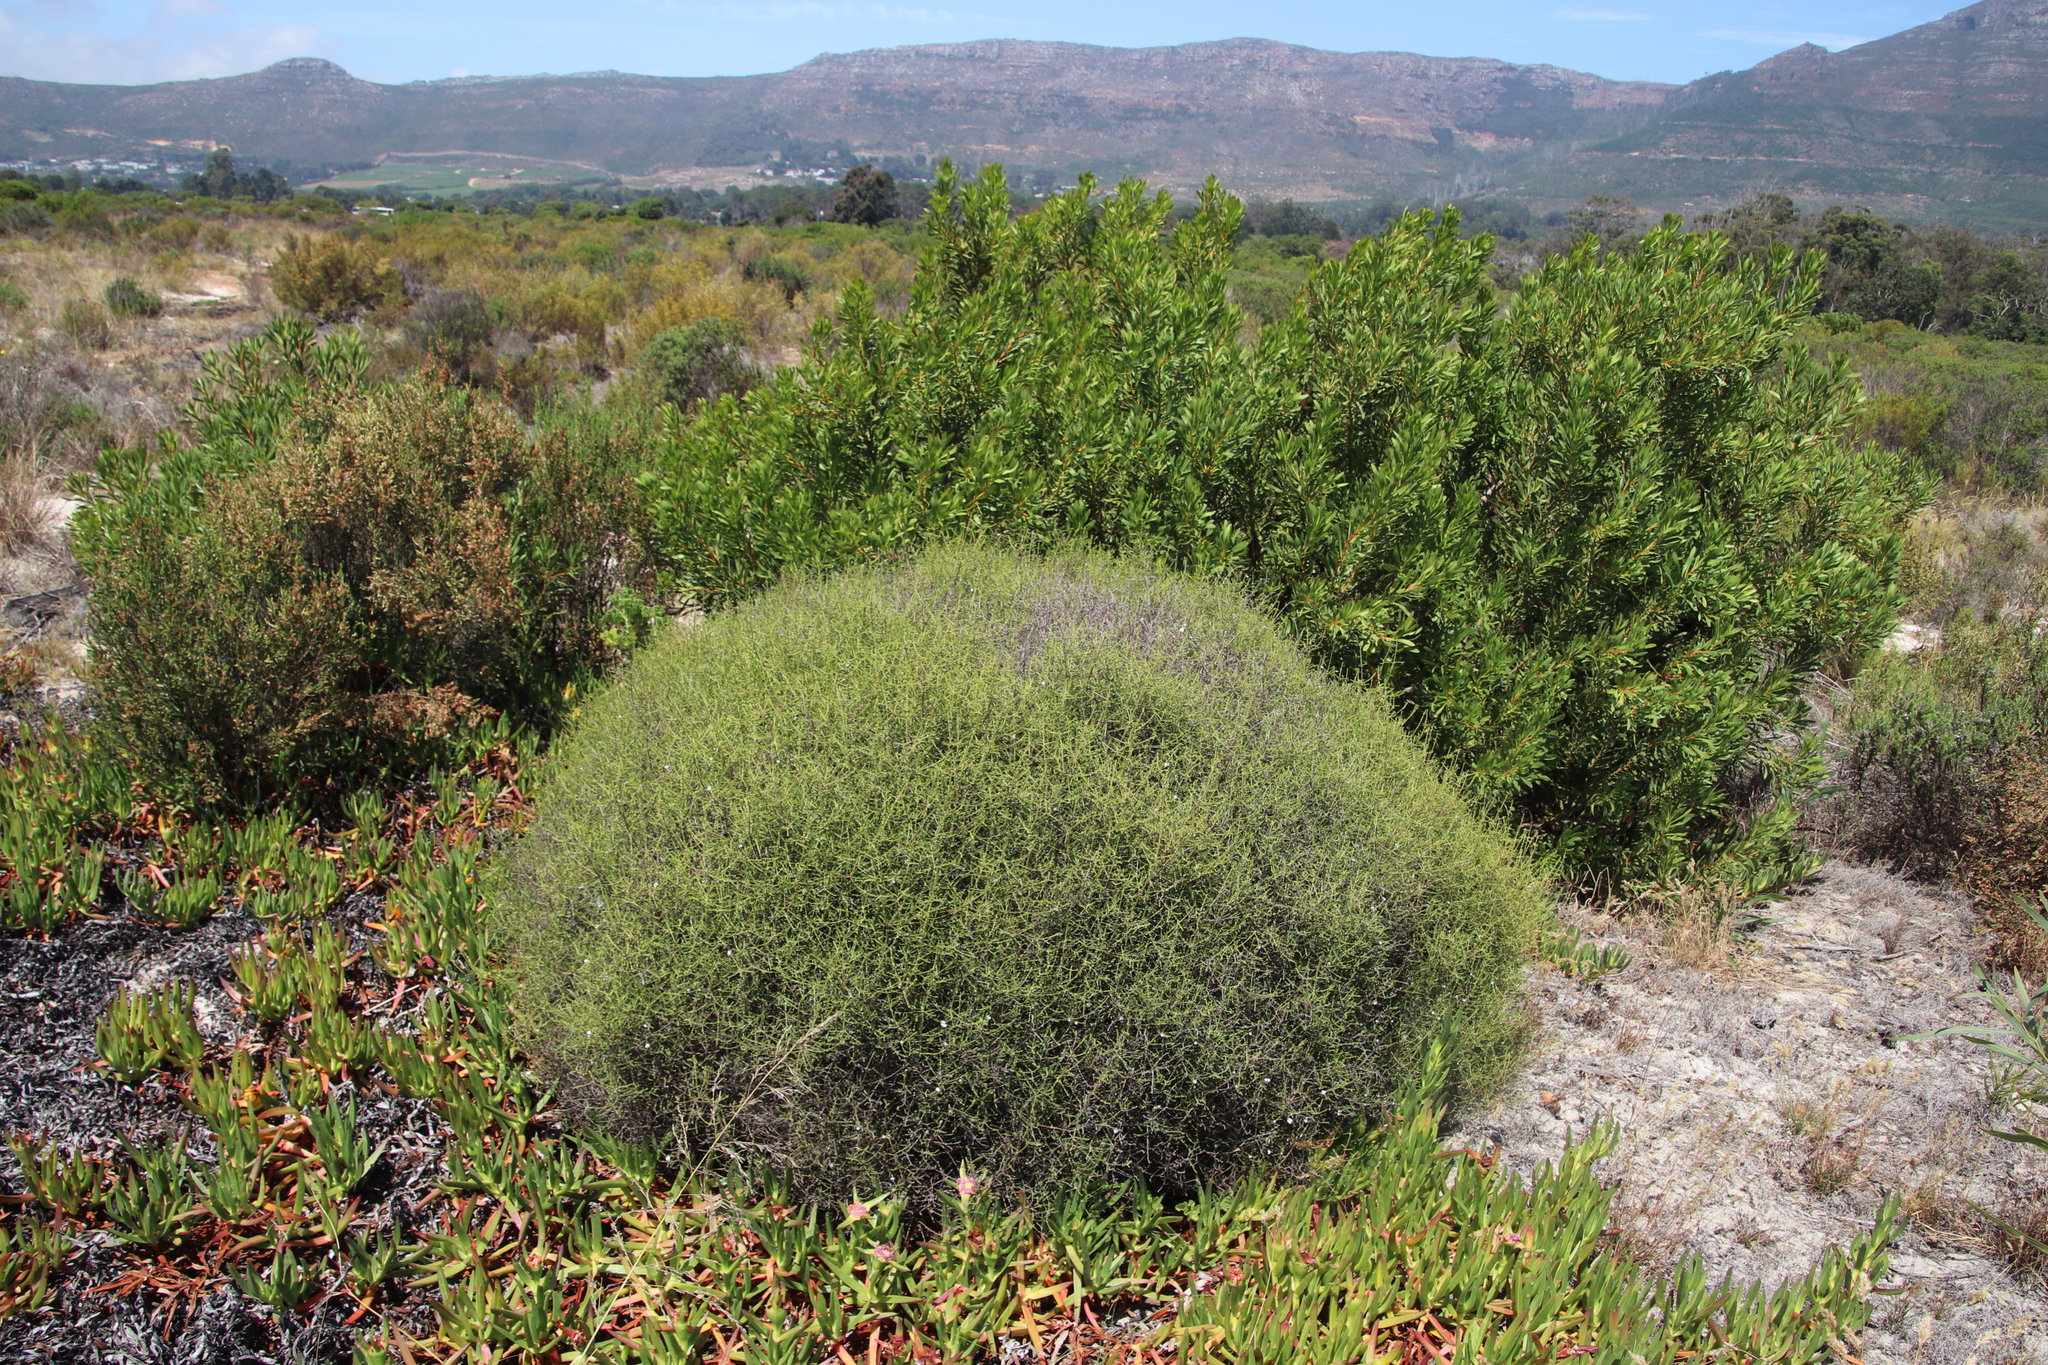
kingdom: Plantae
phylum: Tracheophyta
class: Magnoliopsida
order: Asterales
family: Asteraceae
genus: Myrovernix
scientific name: Myrovernix scaber
